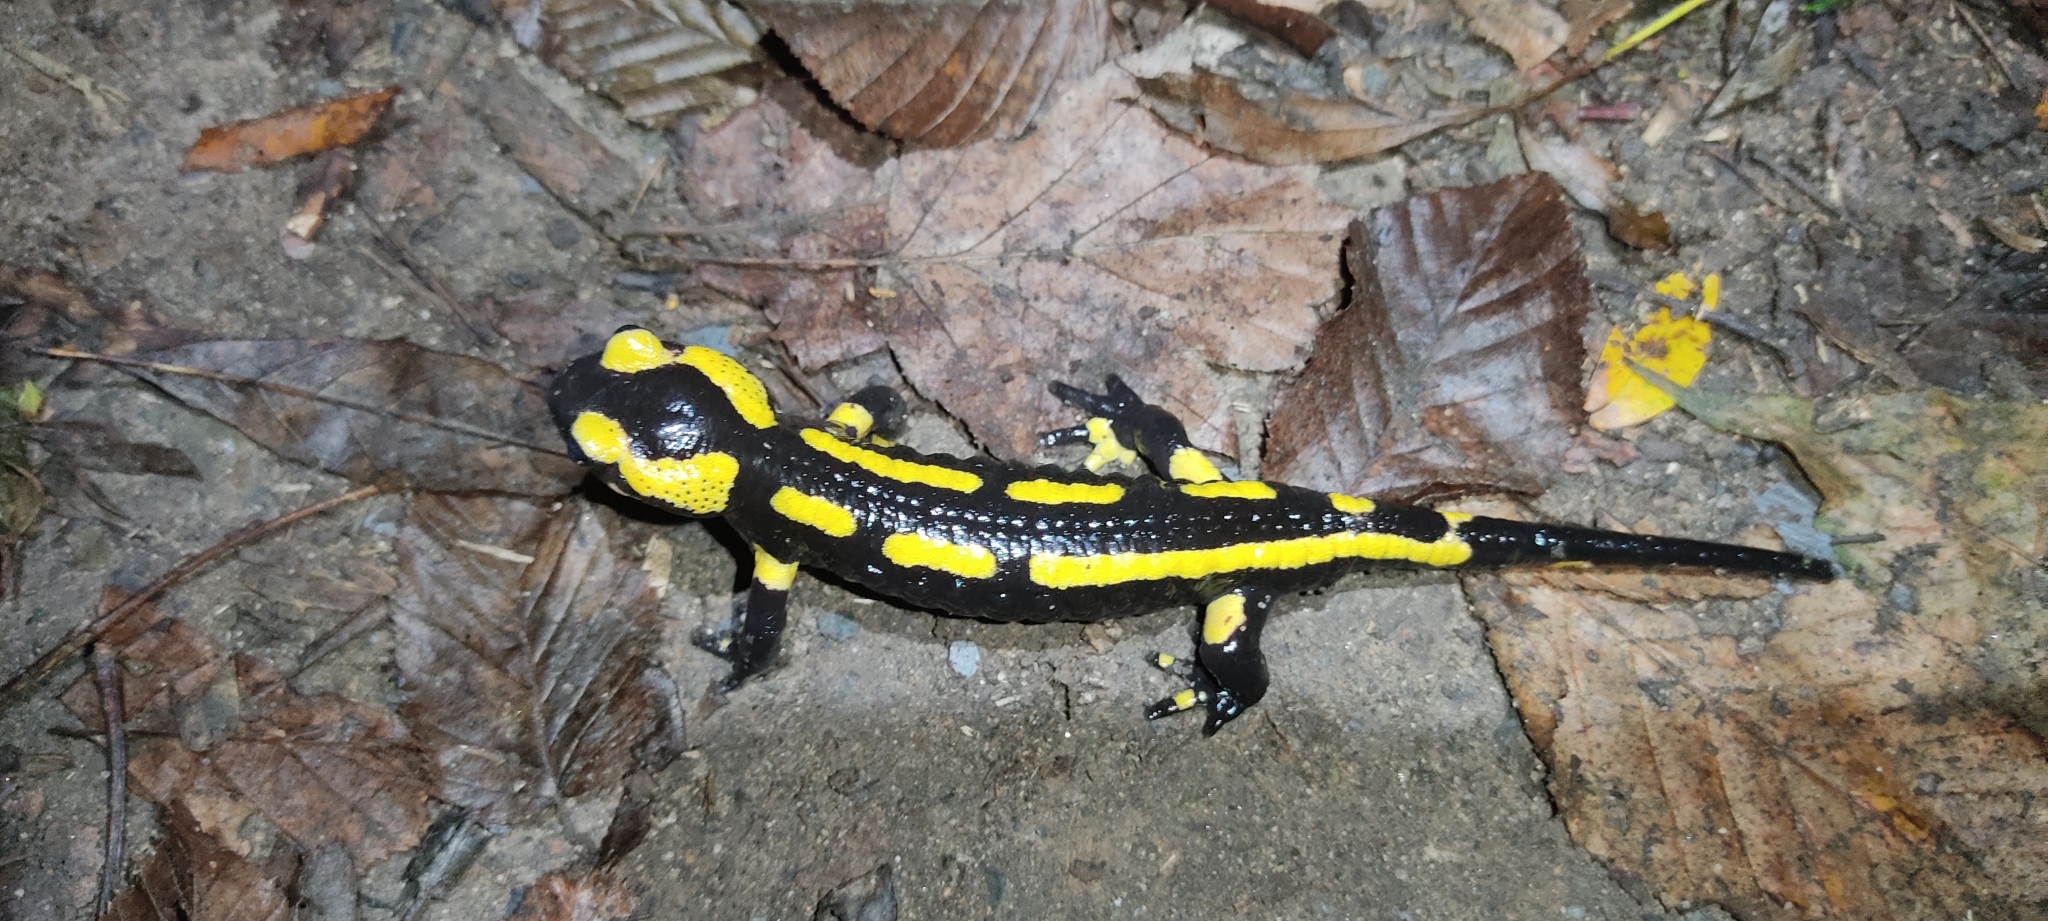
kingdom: Animalia
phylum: Chordata
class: Amphibia
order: Caudata
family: Salamandridae
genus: Salamandra
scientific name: Salamandra salamandra
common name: Fire salamander
